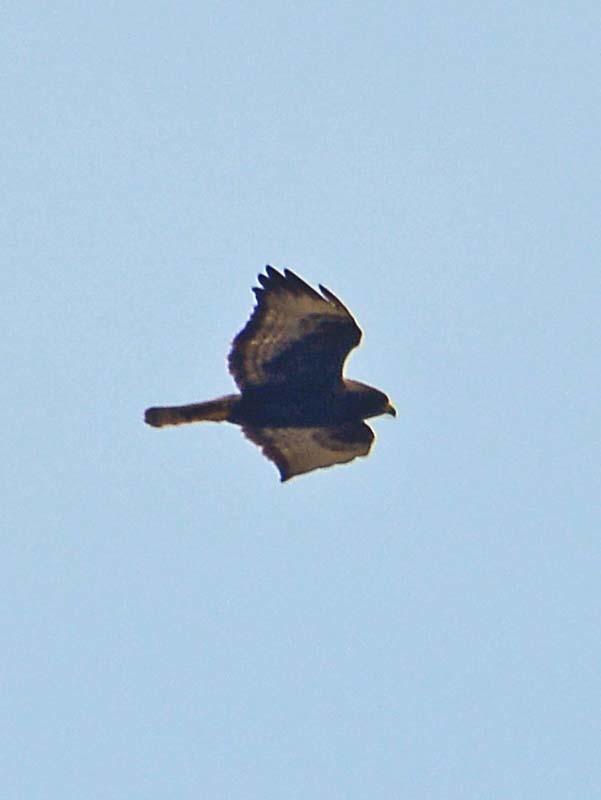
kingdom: Animalia
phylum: Chordata
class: Aves
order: Accipitriformes
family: Accipitridae
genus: Buteo
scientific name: Buteo brachyurus
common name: Short-tailed hawk
